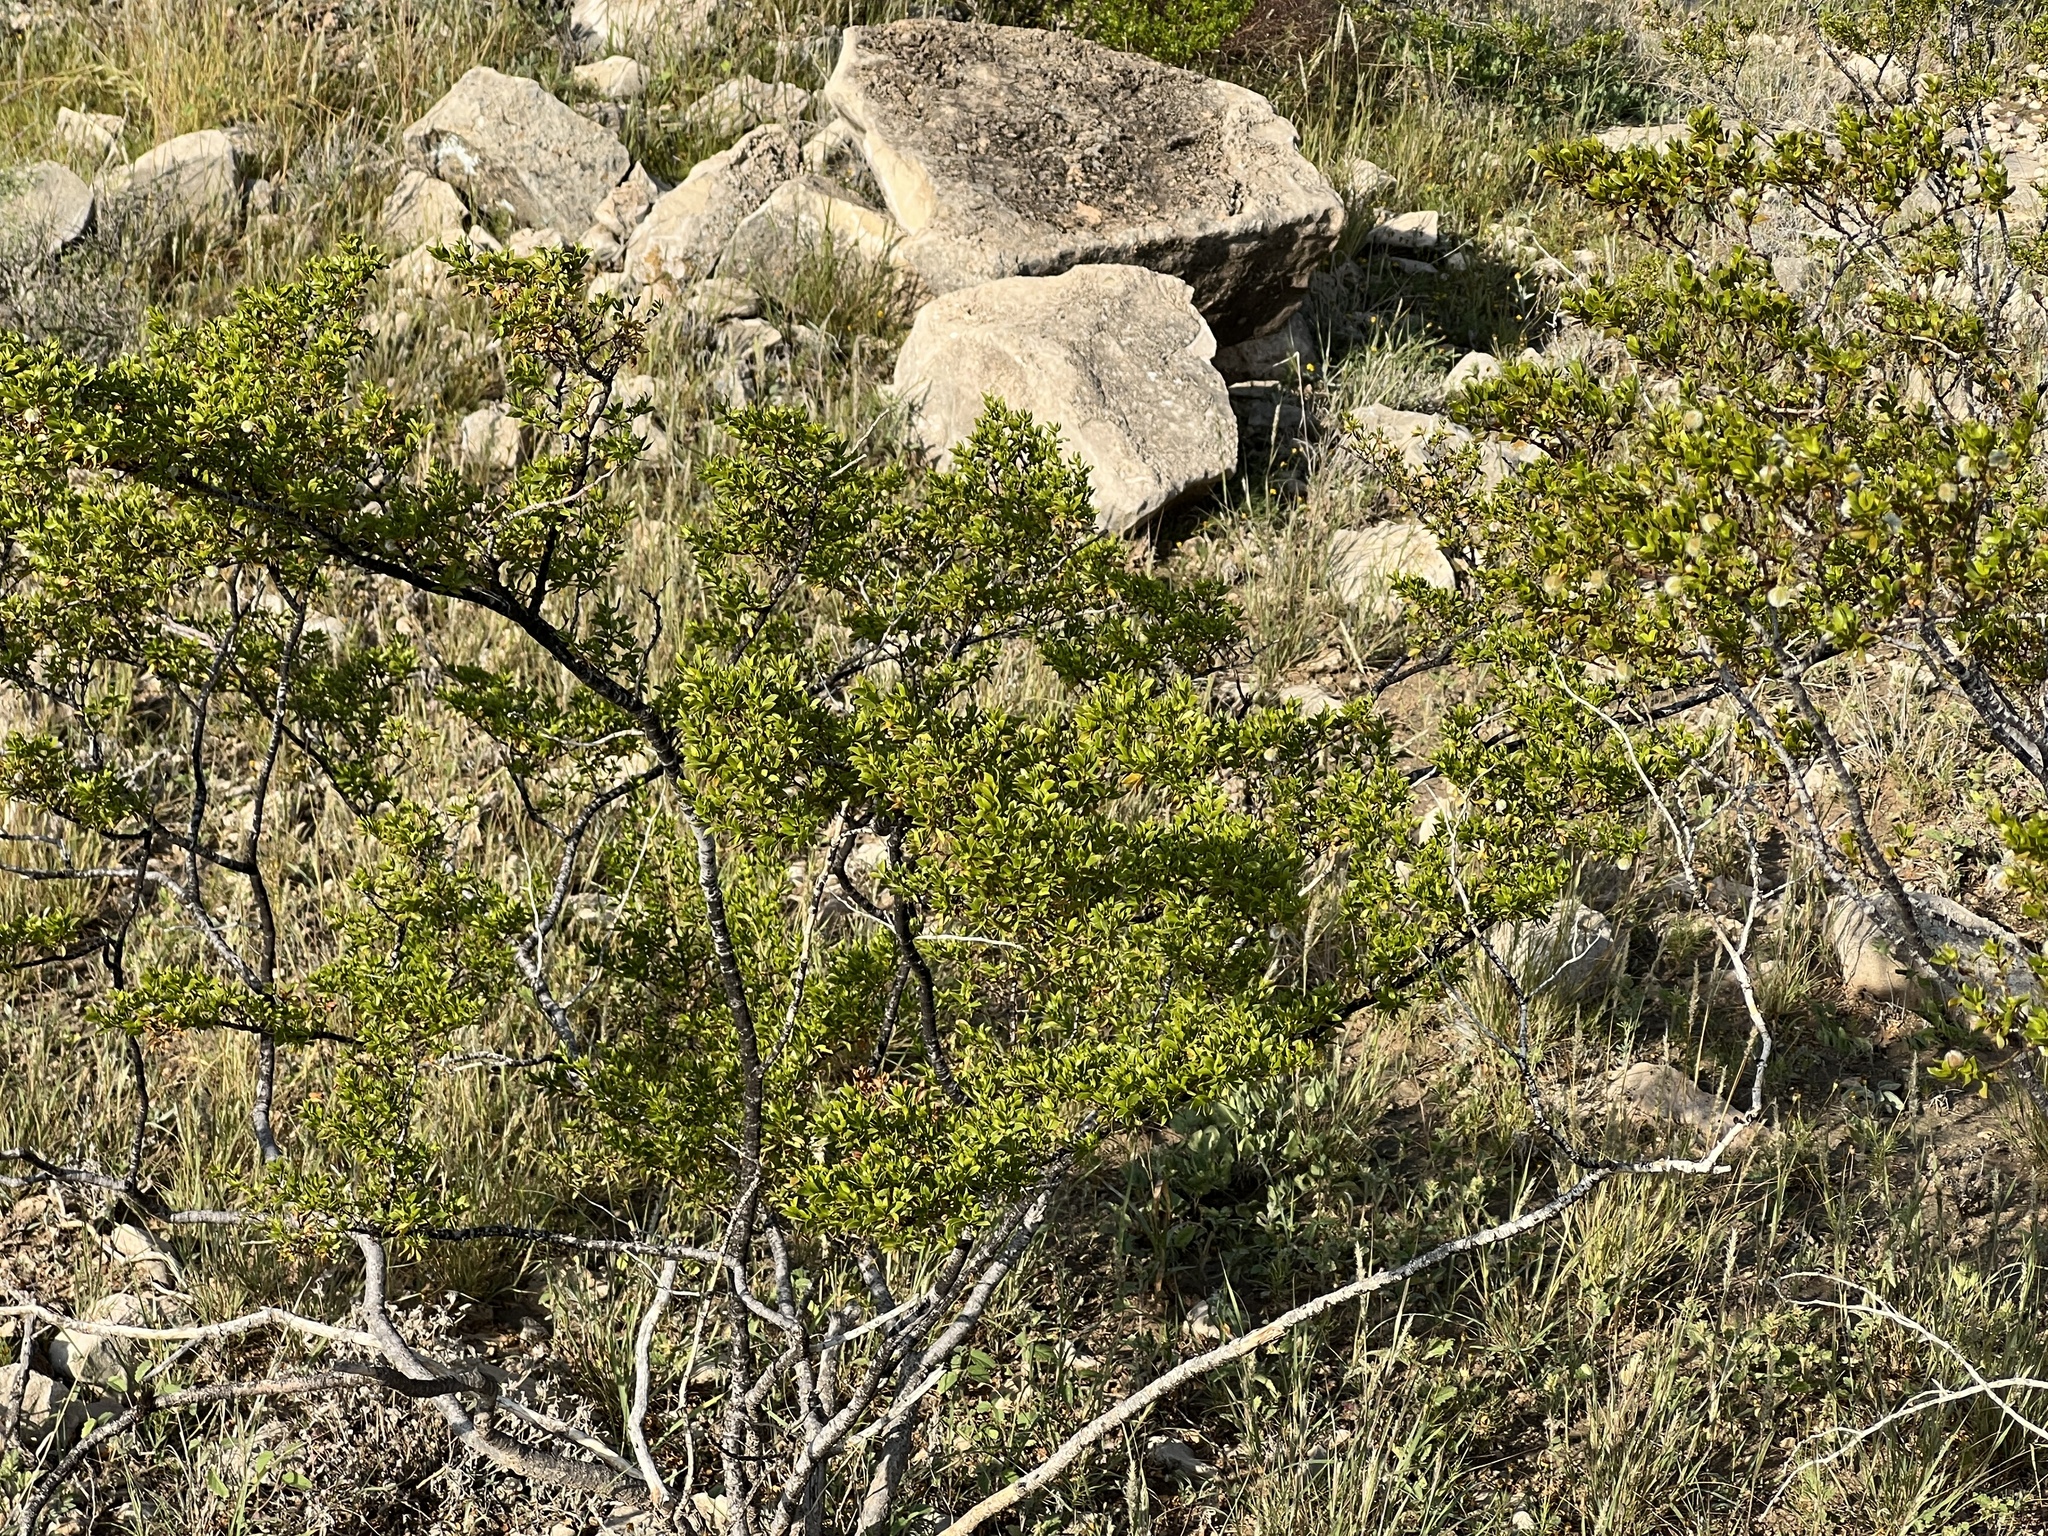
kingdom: Plantae
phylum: Tracheophyta
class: Magnoliopsida
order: Zygophyllales
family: Zygophyllaceae
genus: Larrea
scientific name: Larrea tridentata
